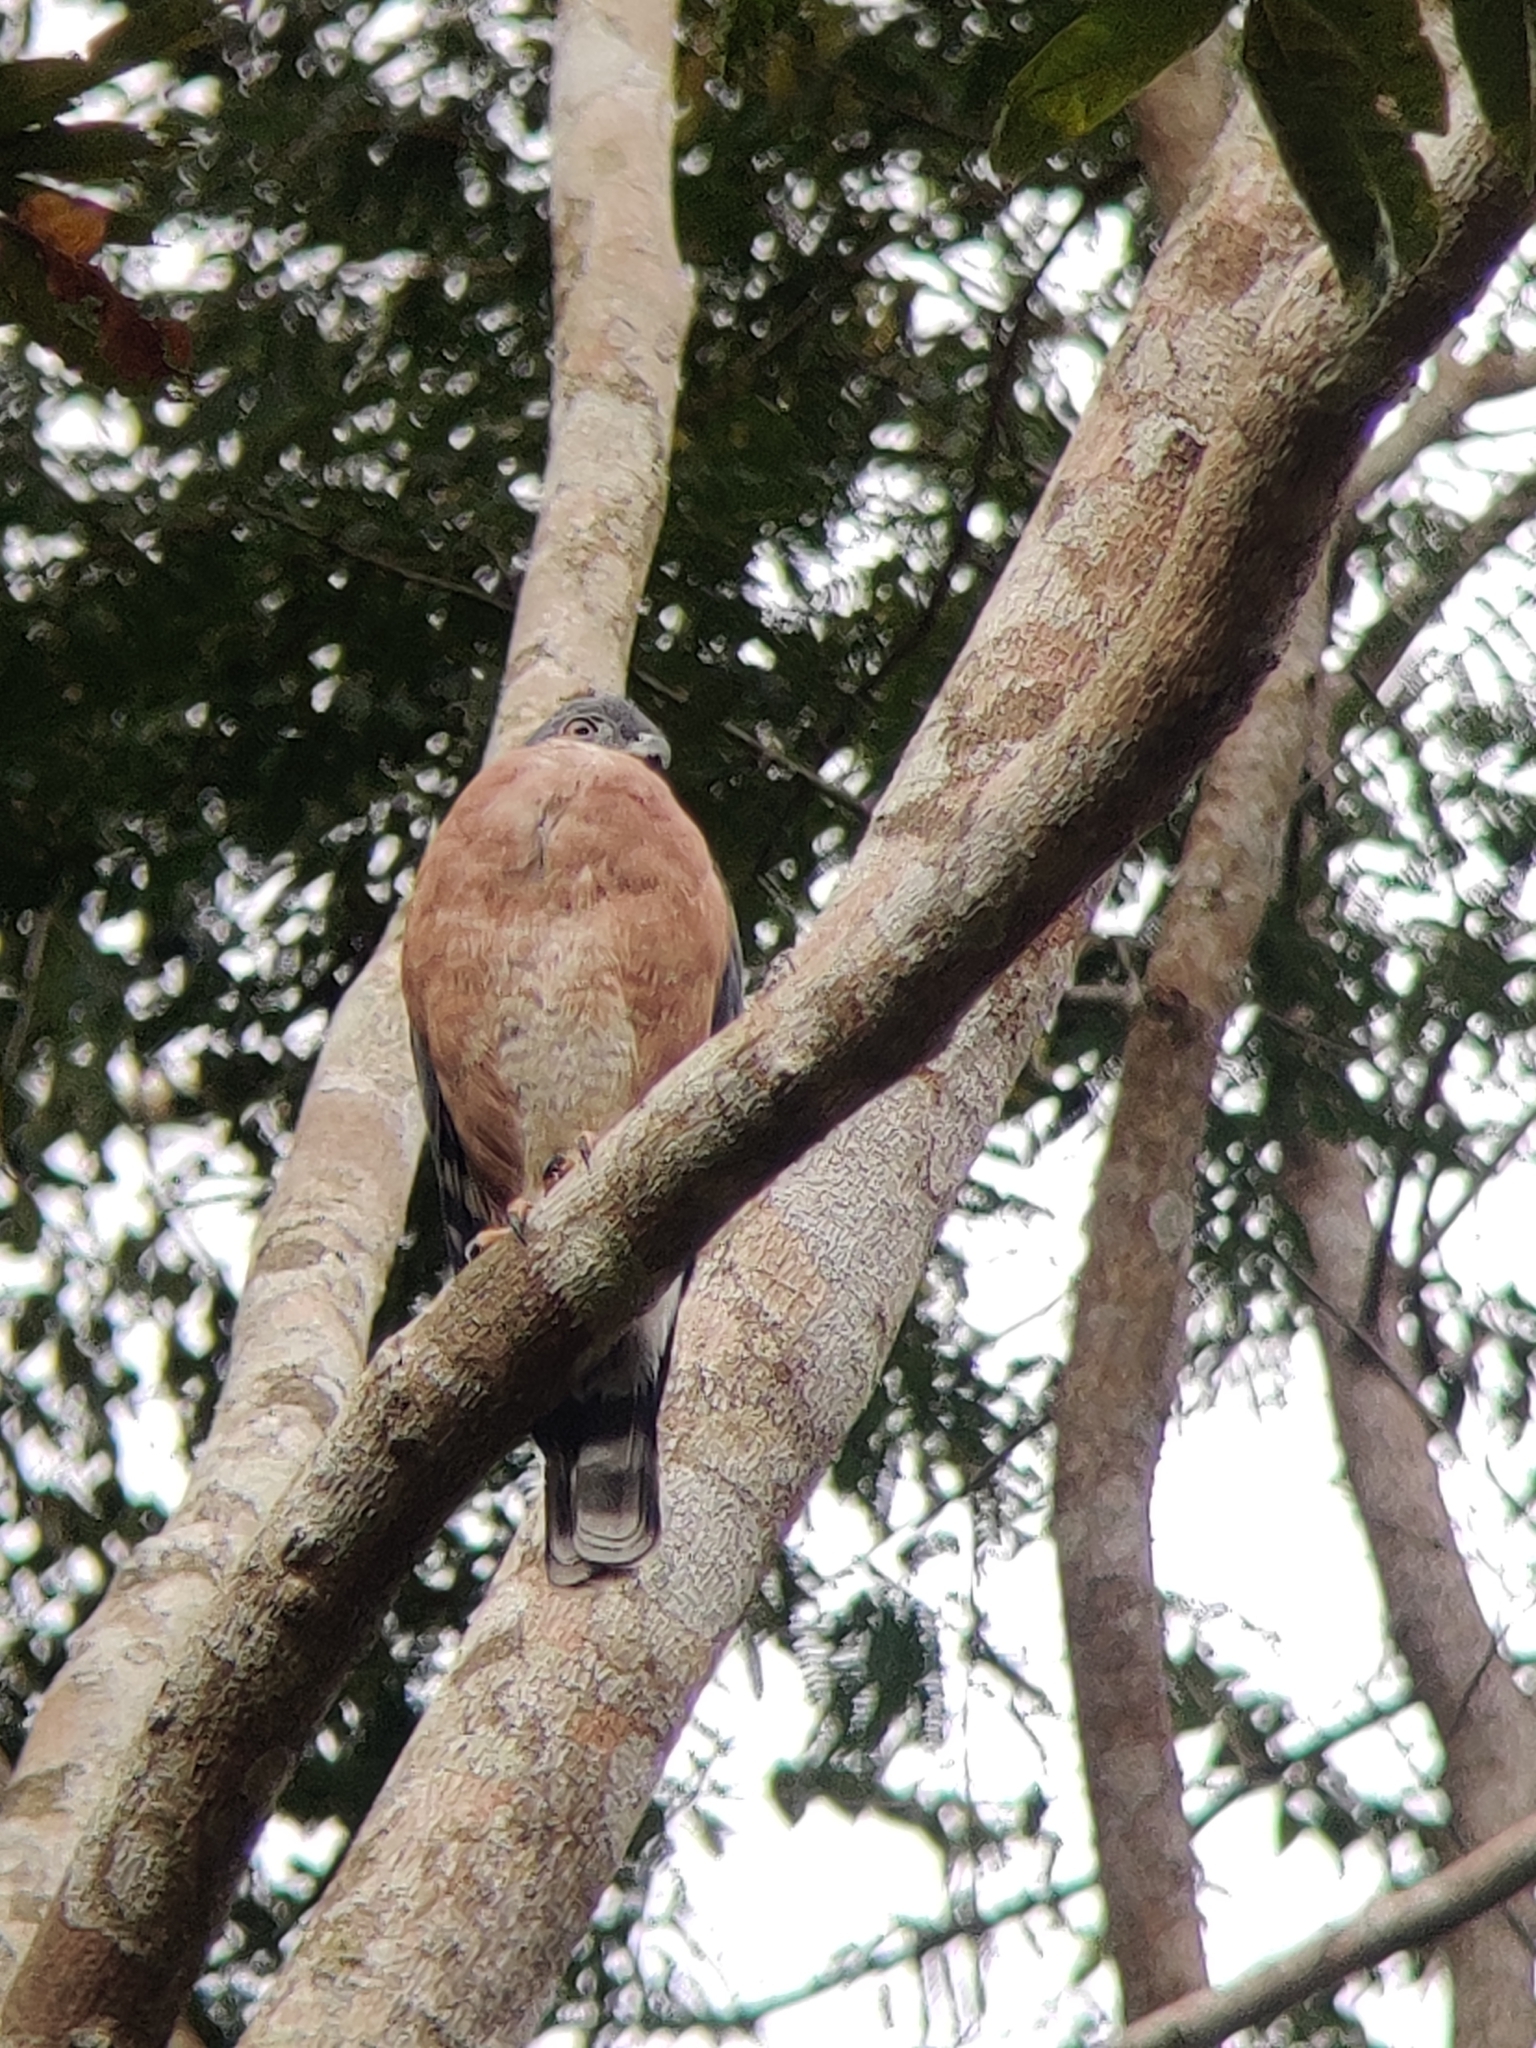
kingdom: Animalia
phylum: Chordata
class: Aves
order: Accipitriformes
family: Accipitridae
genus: Harpagus
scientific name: Harpagus bidentatus
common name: Double-toothed kite
